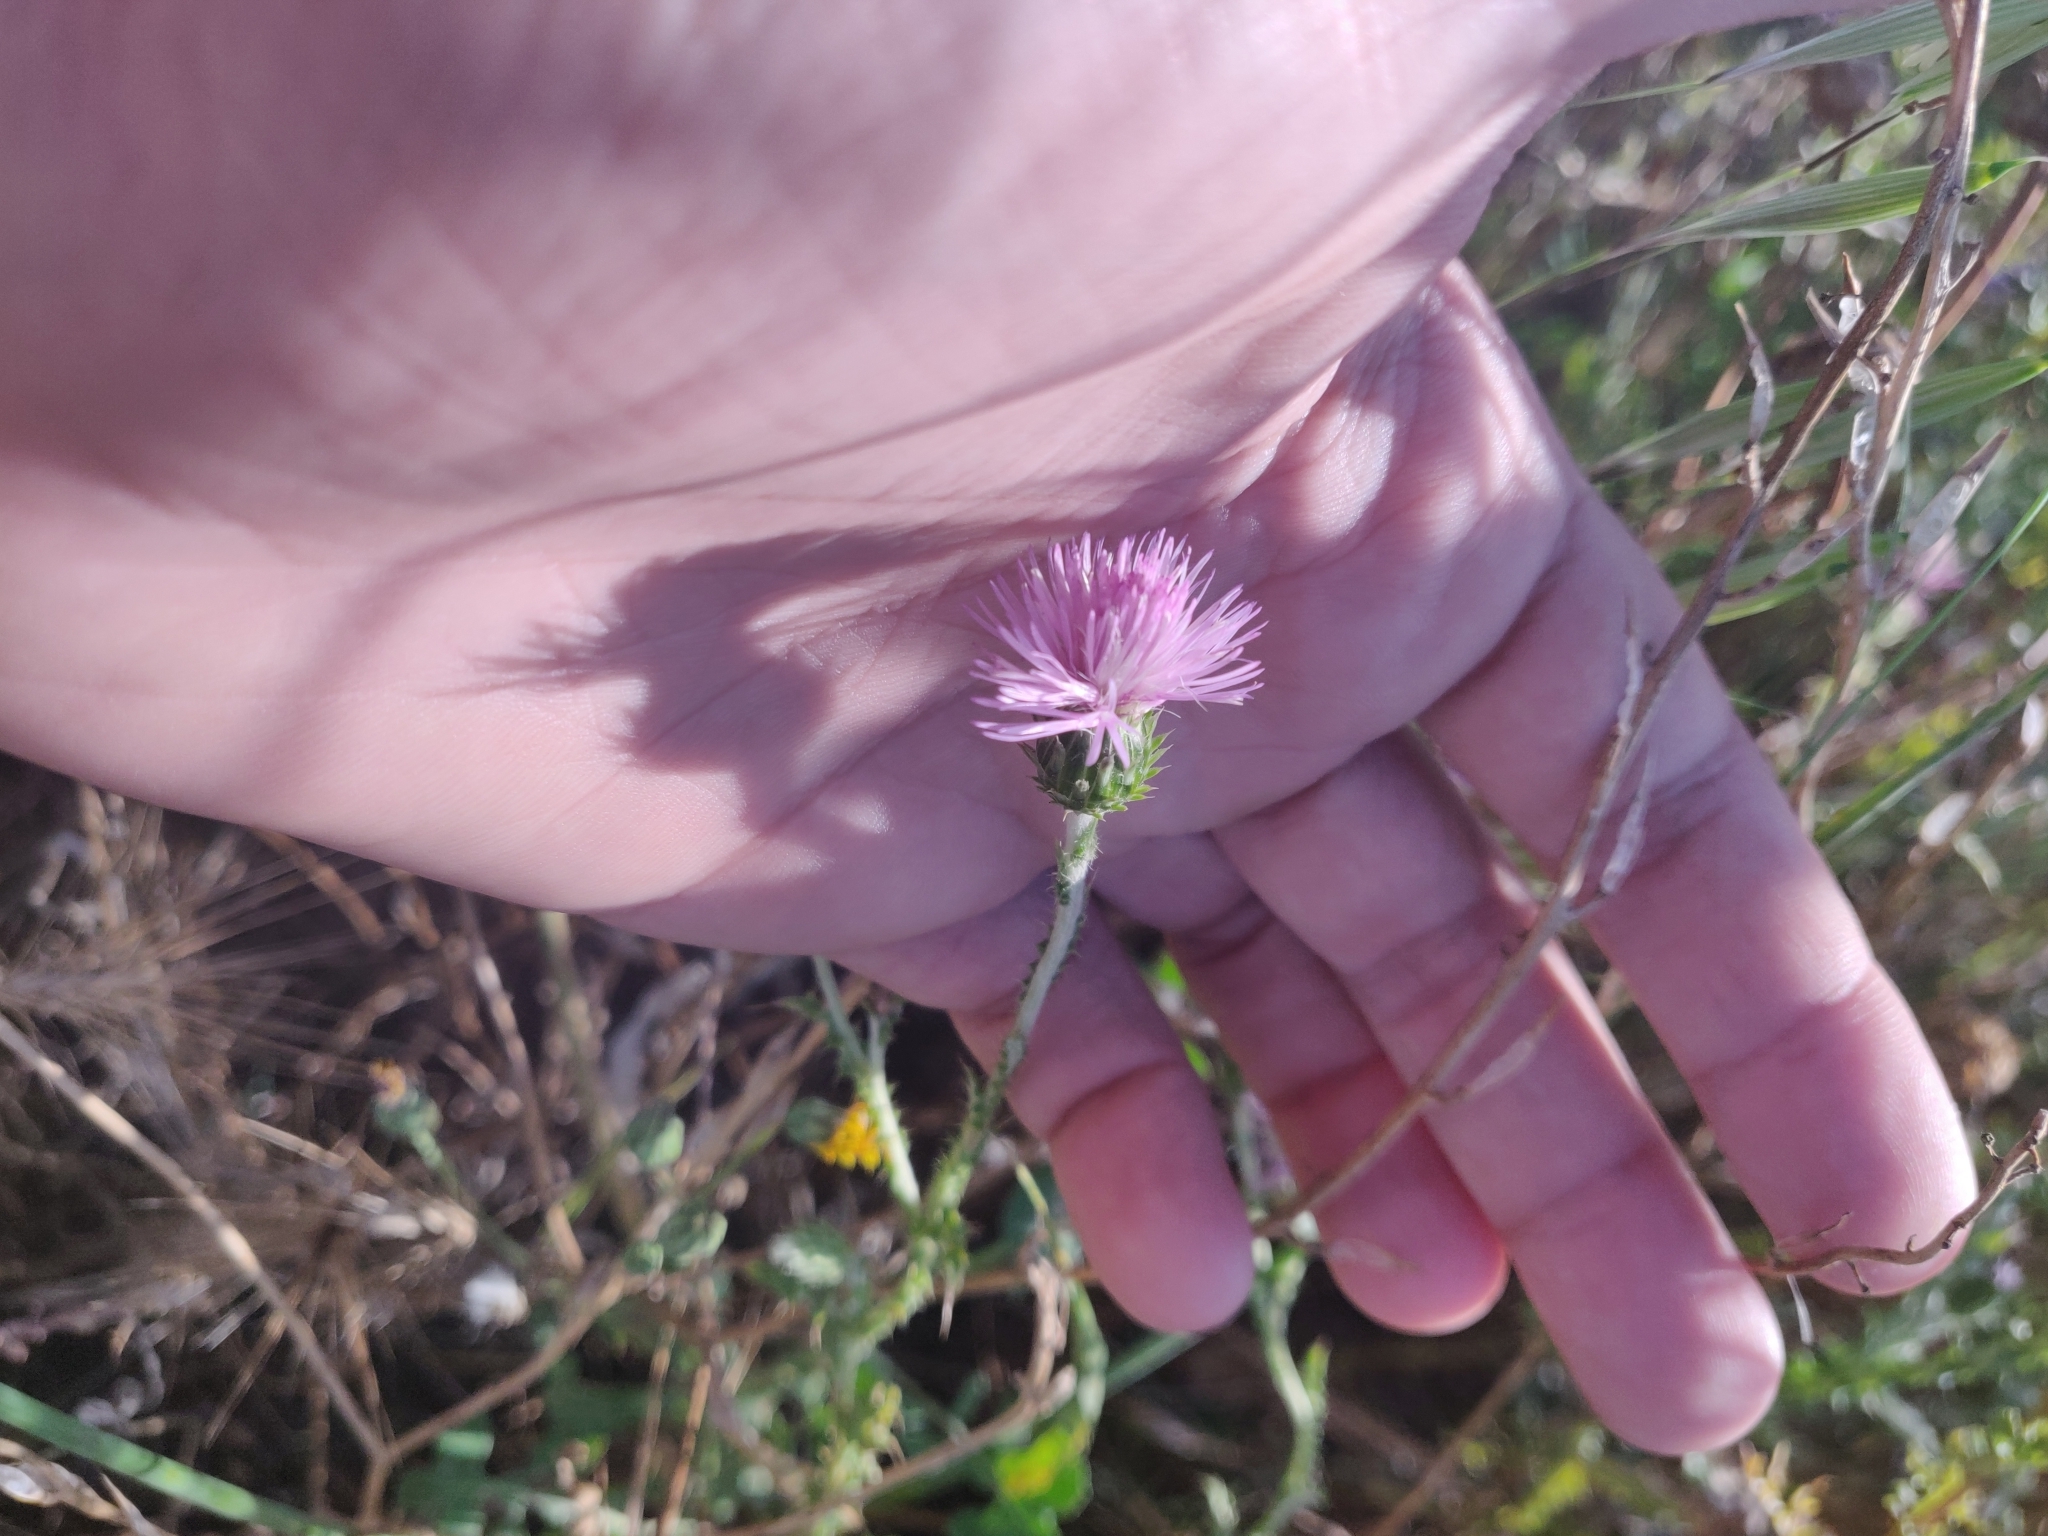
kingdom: Plantae
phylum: Tracheophyta
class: Magnoliopsida
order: Asterales
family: Asteraceae
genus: Carduus
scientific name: Carduus corymbosus
